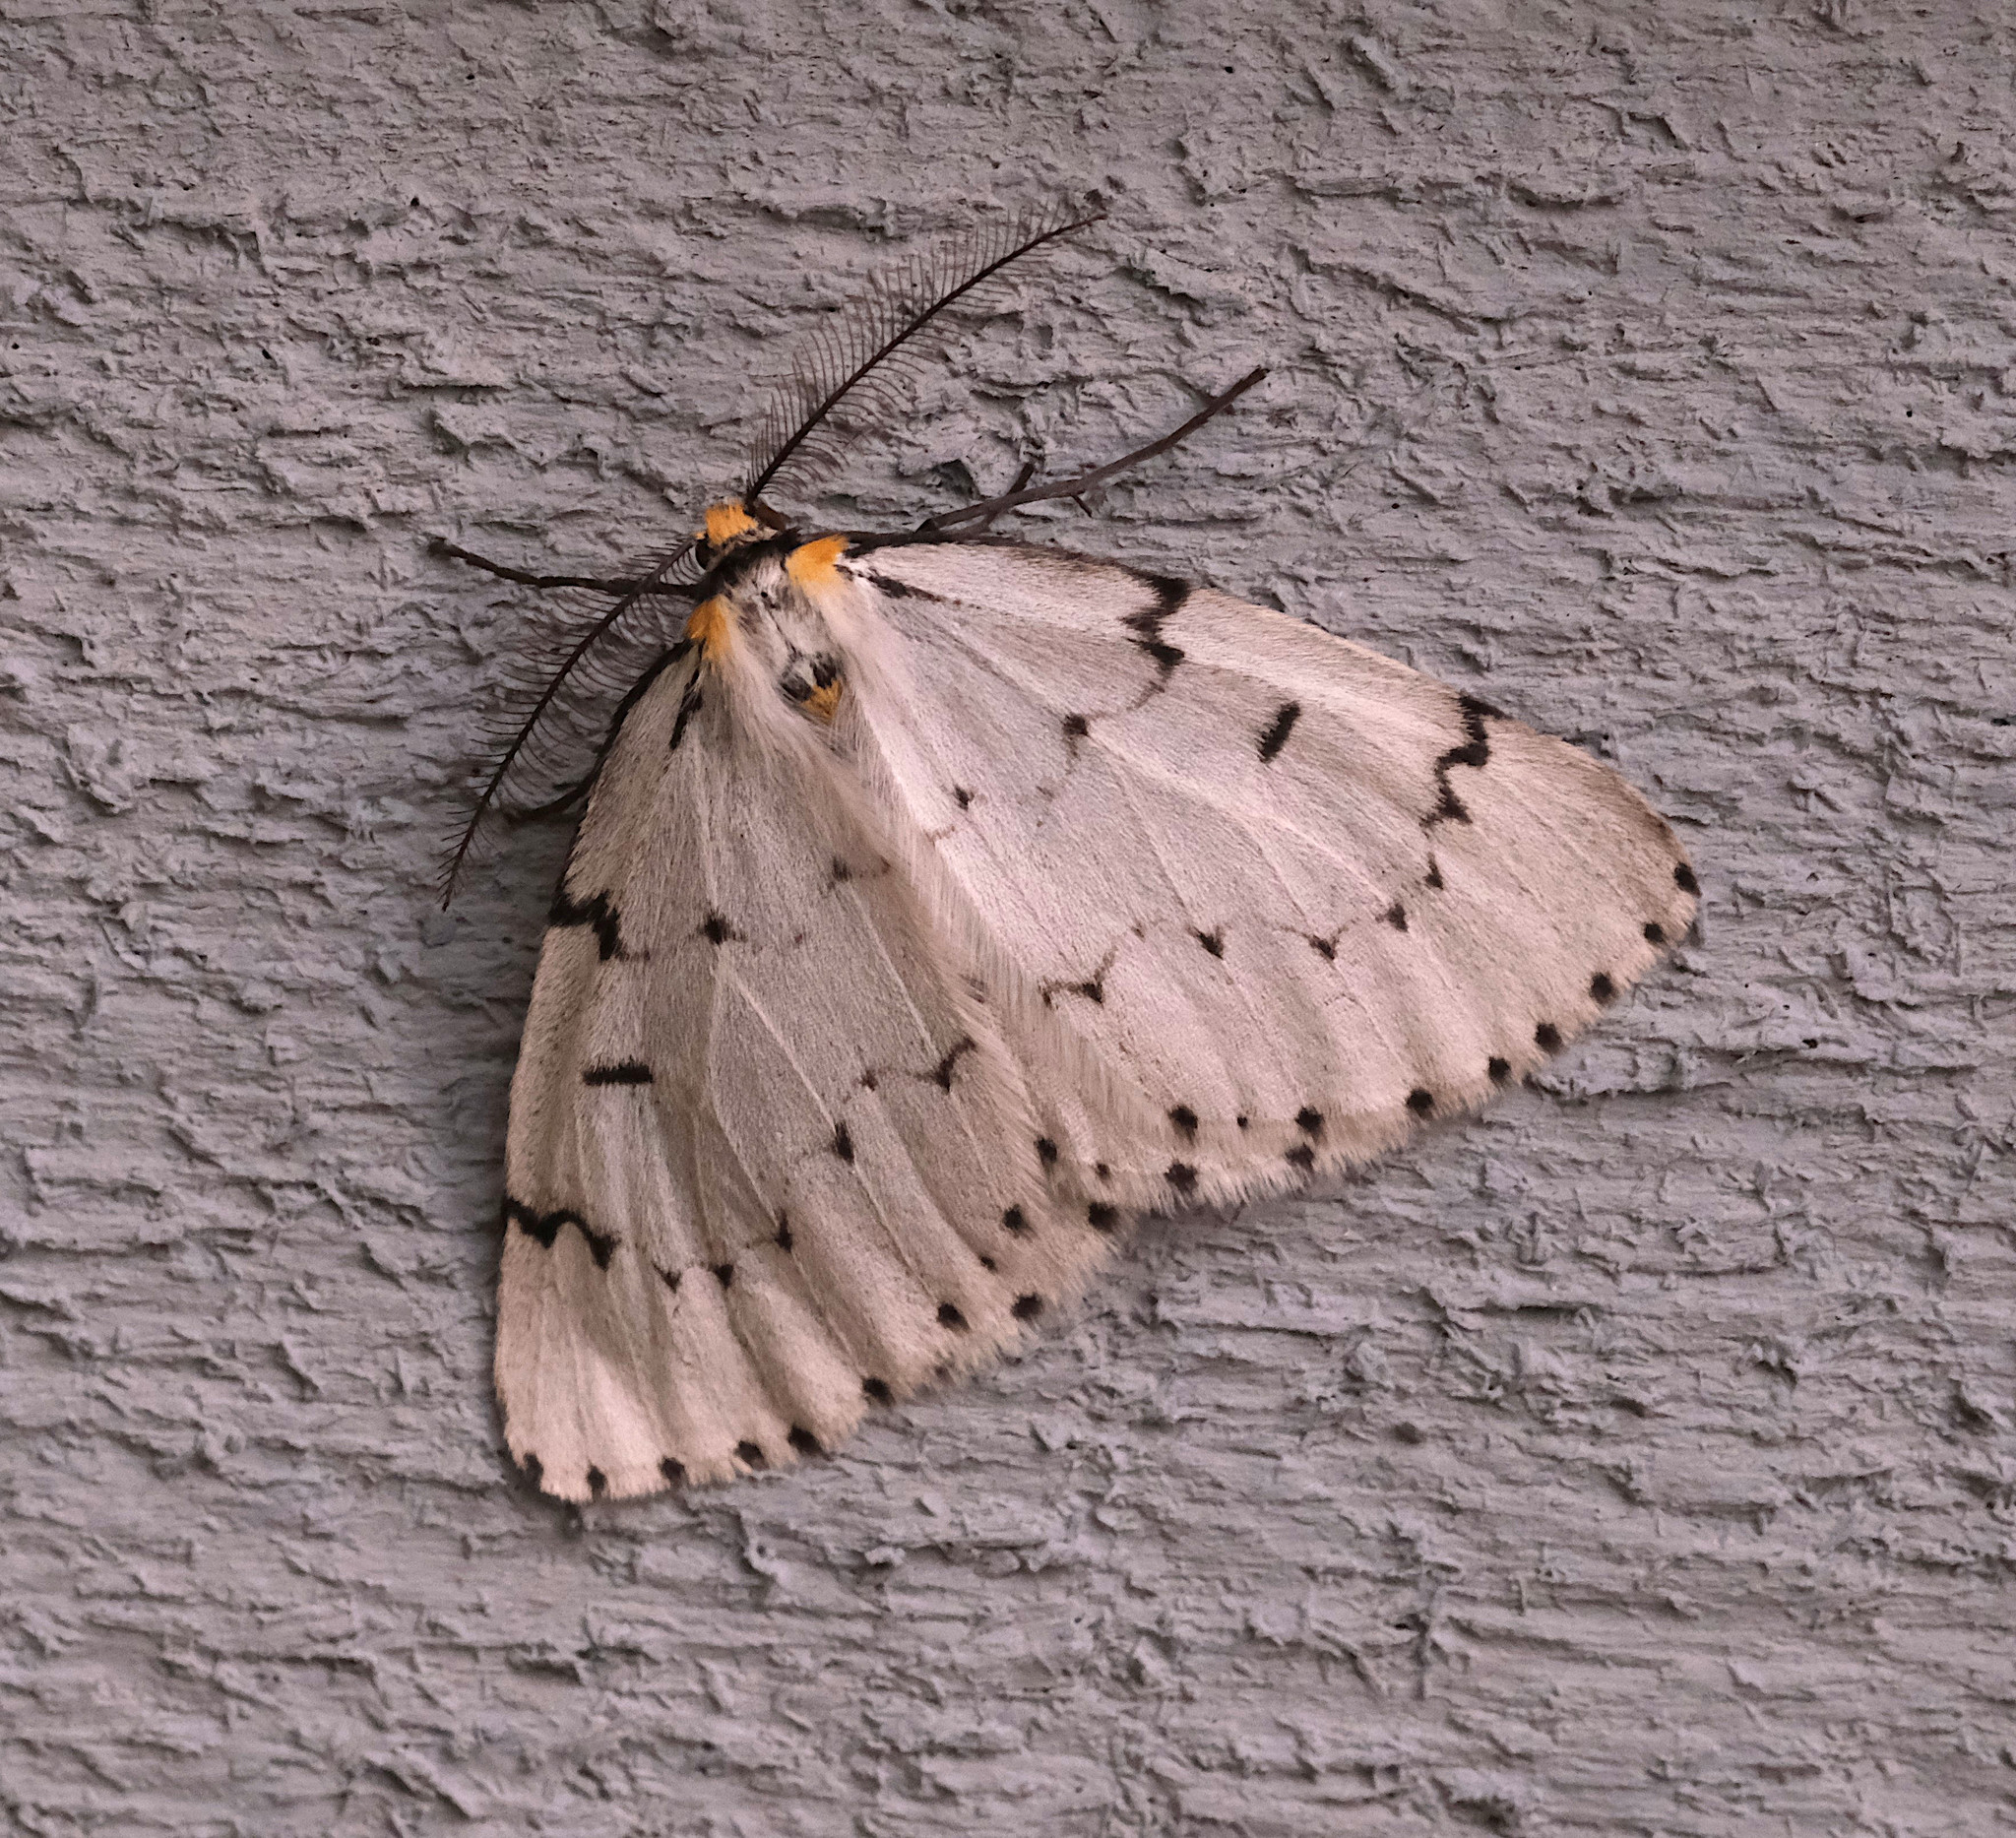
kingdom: Animalia
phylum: Arthropoda
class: Insecta
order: Lepidoptera
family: Geometridae
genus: Cingilia
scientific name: Cingilia catenaria
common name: Chain-dotted geometer
